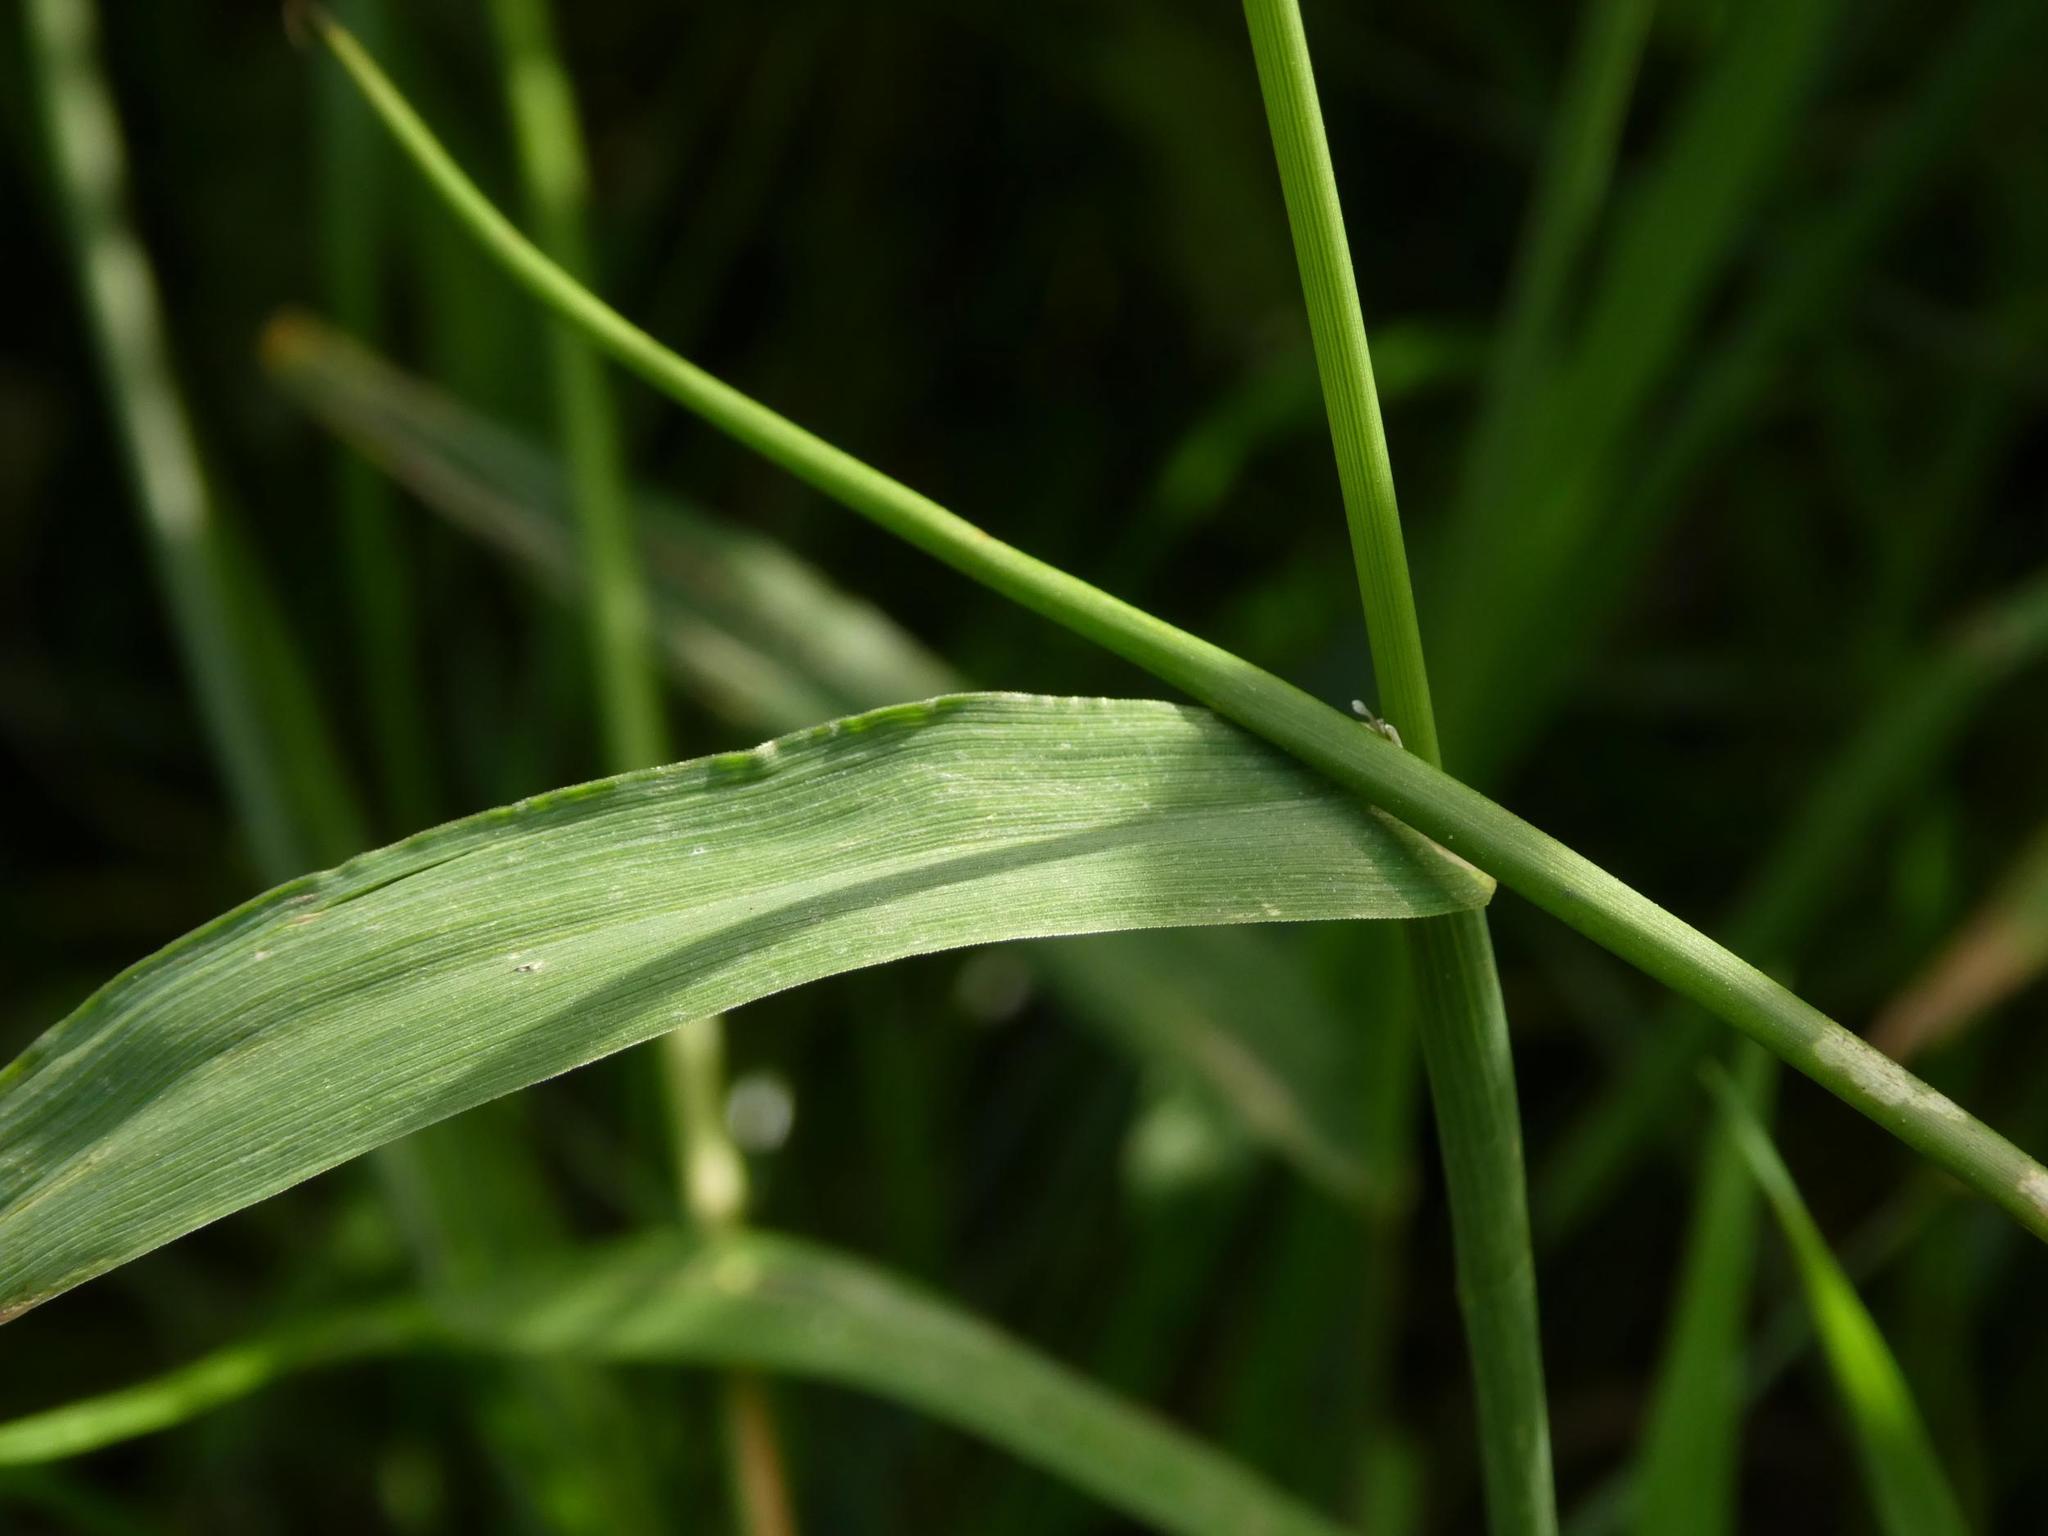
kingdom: Plantae
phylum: Tracheophyta
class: Liliopsida
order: Poales
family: Poaceae
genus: Phleum
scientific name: Phleum pratense
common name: Timothy grass
